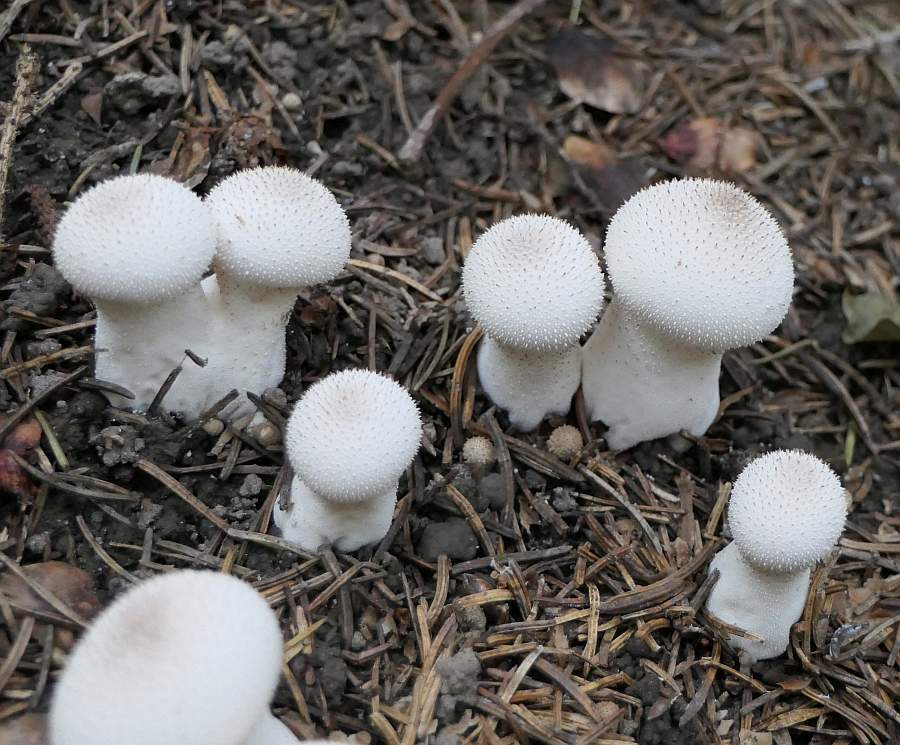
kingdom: Fungi
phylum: Basidiomycota
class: Agaricomycetes
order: Agaricales
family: Lycoperdaceae
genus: Lycoperdon
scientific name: Lycoperdon perlatum
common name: Common puffball
